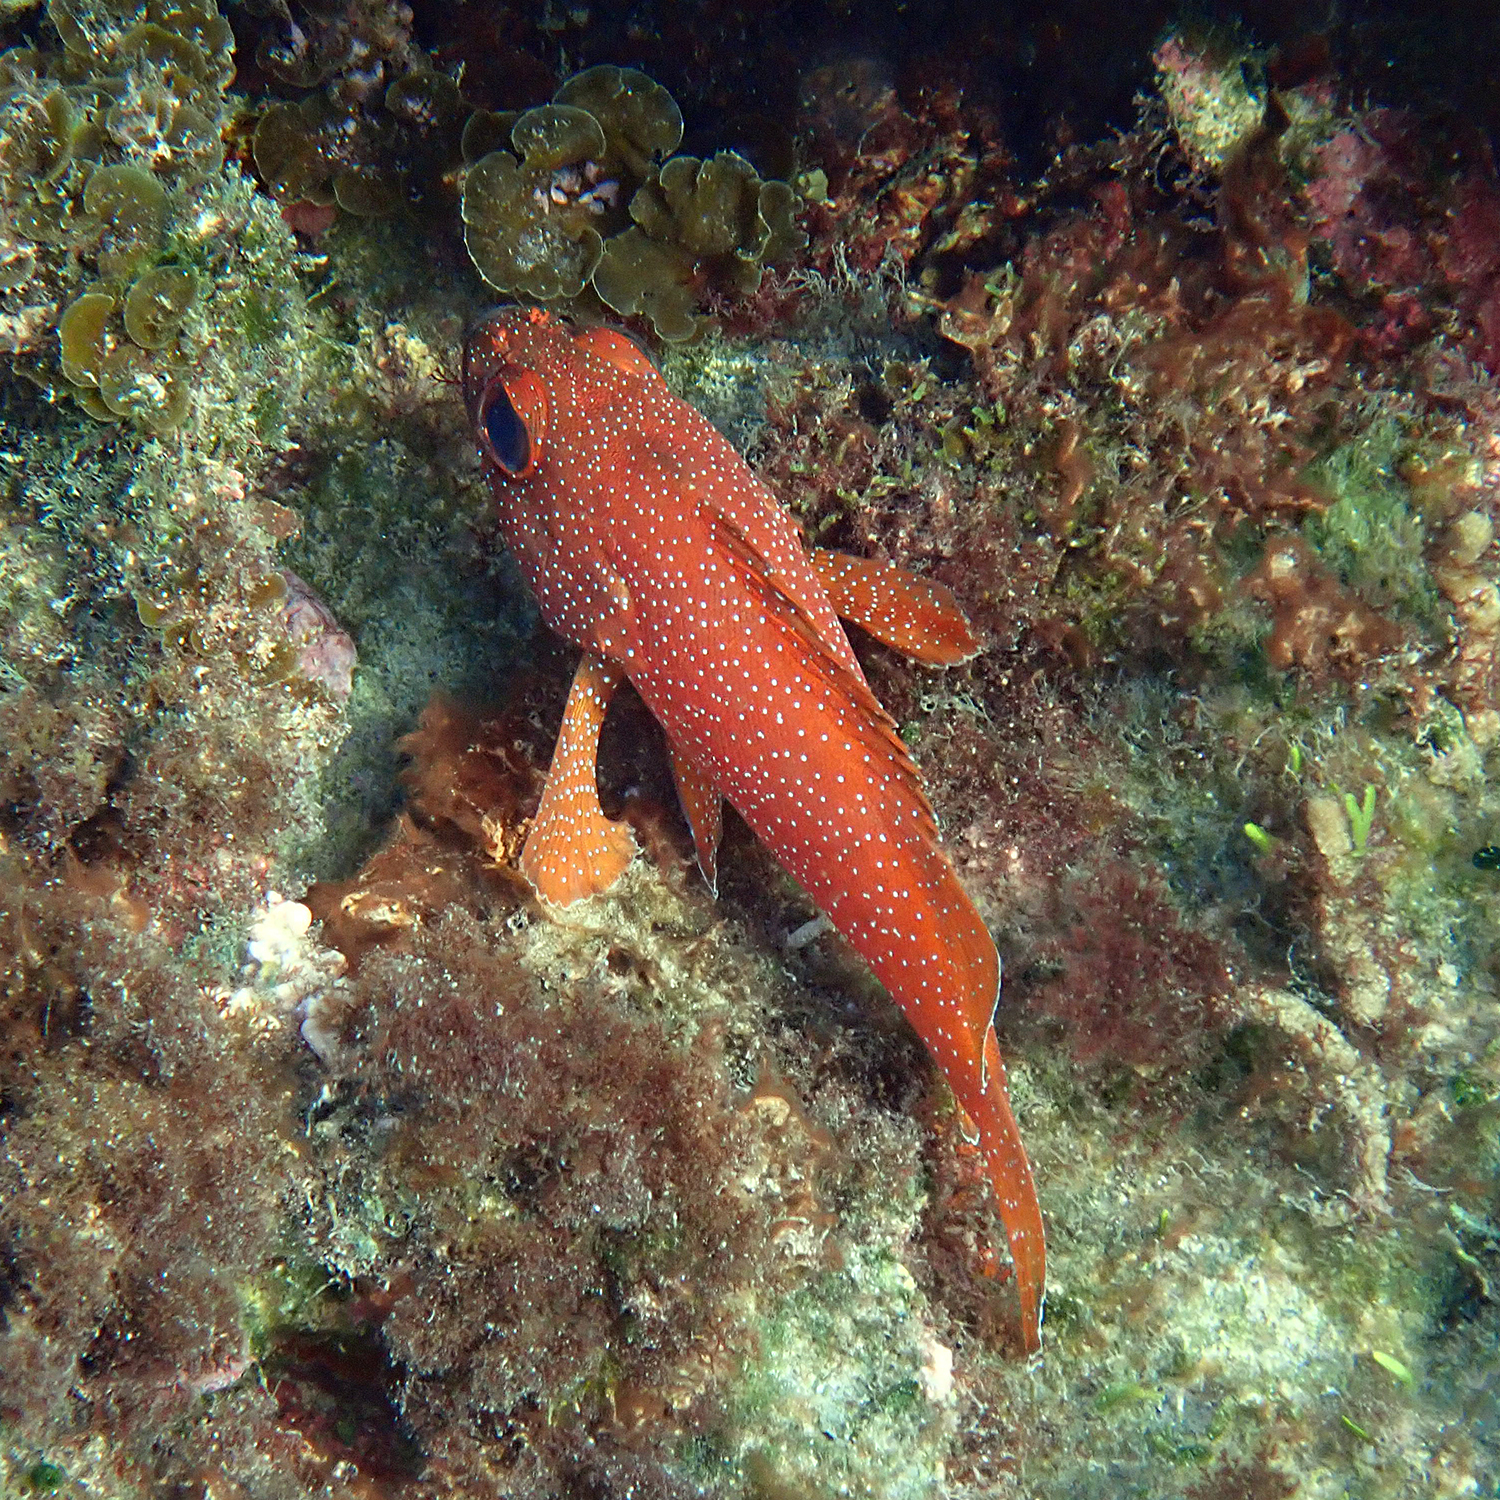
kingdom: Animalia
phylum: Chordata
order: Perciformes
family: Serranidae
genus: Trachypoma
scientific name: Trachypoma macracanthus
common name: Toadstool grouper
